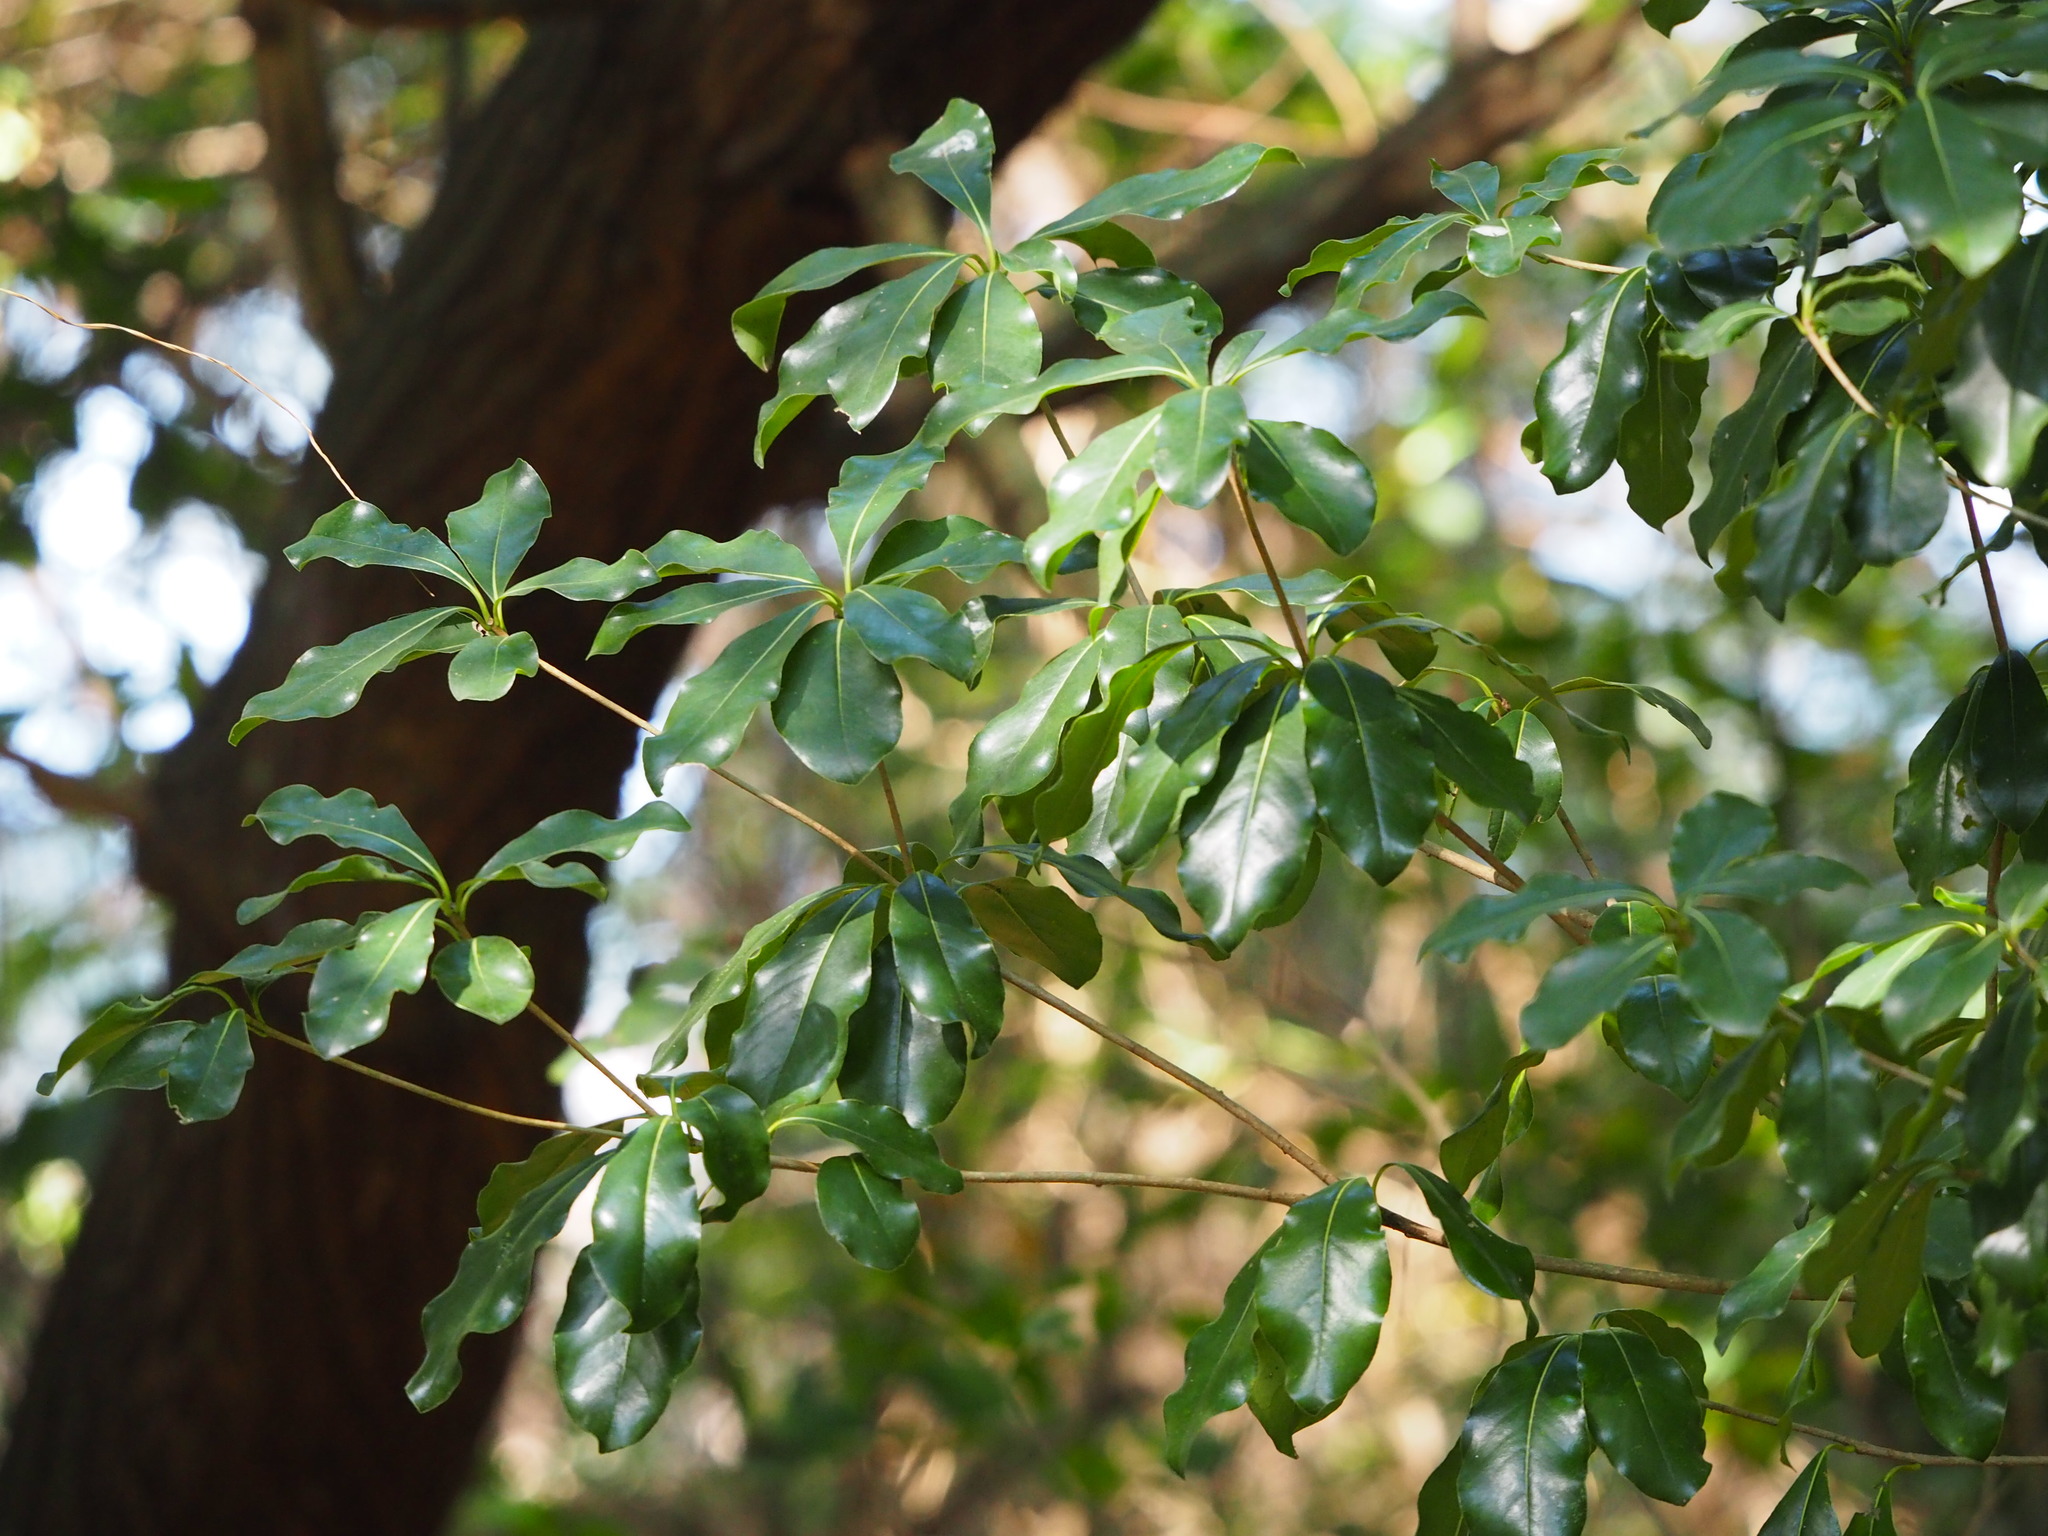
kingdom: Plantae
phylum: Tracheophyta
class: Magnoliopsida
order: Apiales
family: Pittosporaceae
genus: Pittosporum
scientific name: Pittosporum tobira
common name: Japanese cheesewood
